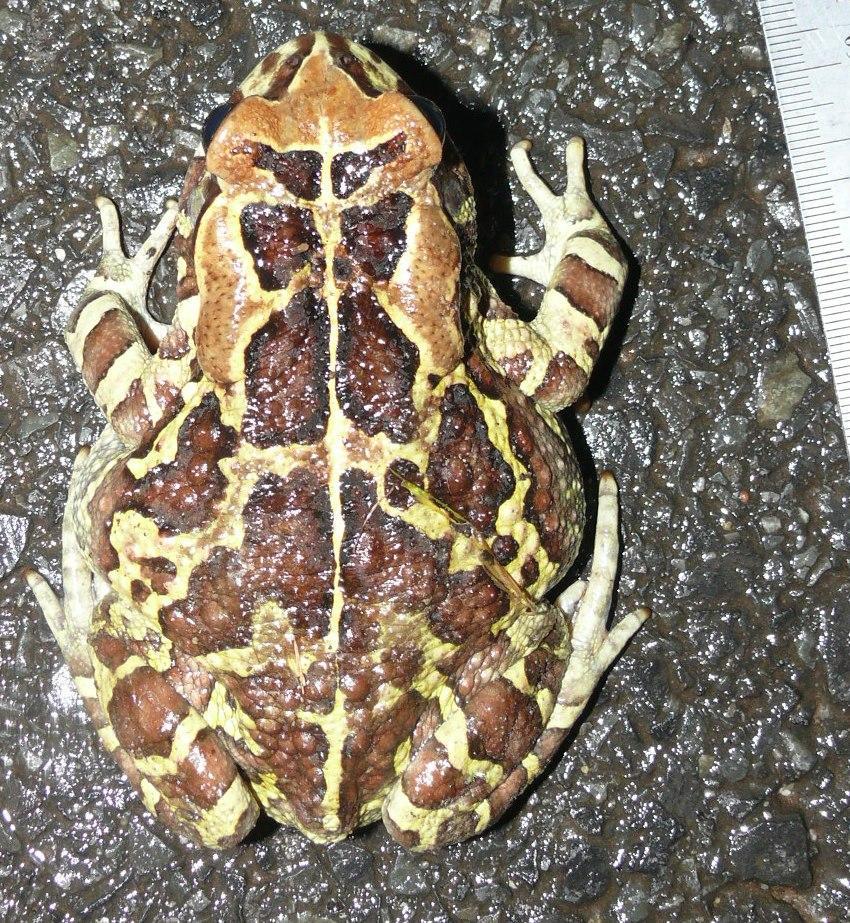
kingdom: Animalia
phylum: Chordata
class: Amphibia
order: Anura
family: Bufonidae
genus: Sclerophrys
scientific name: Sclerophrys pantherina
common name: Panther toad
